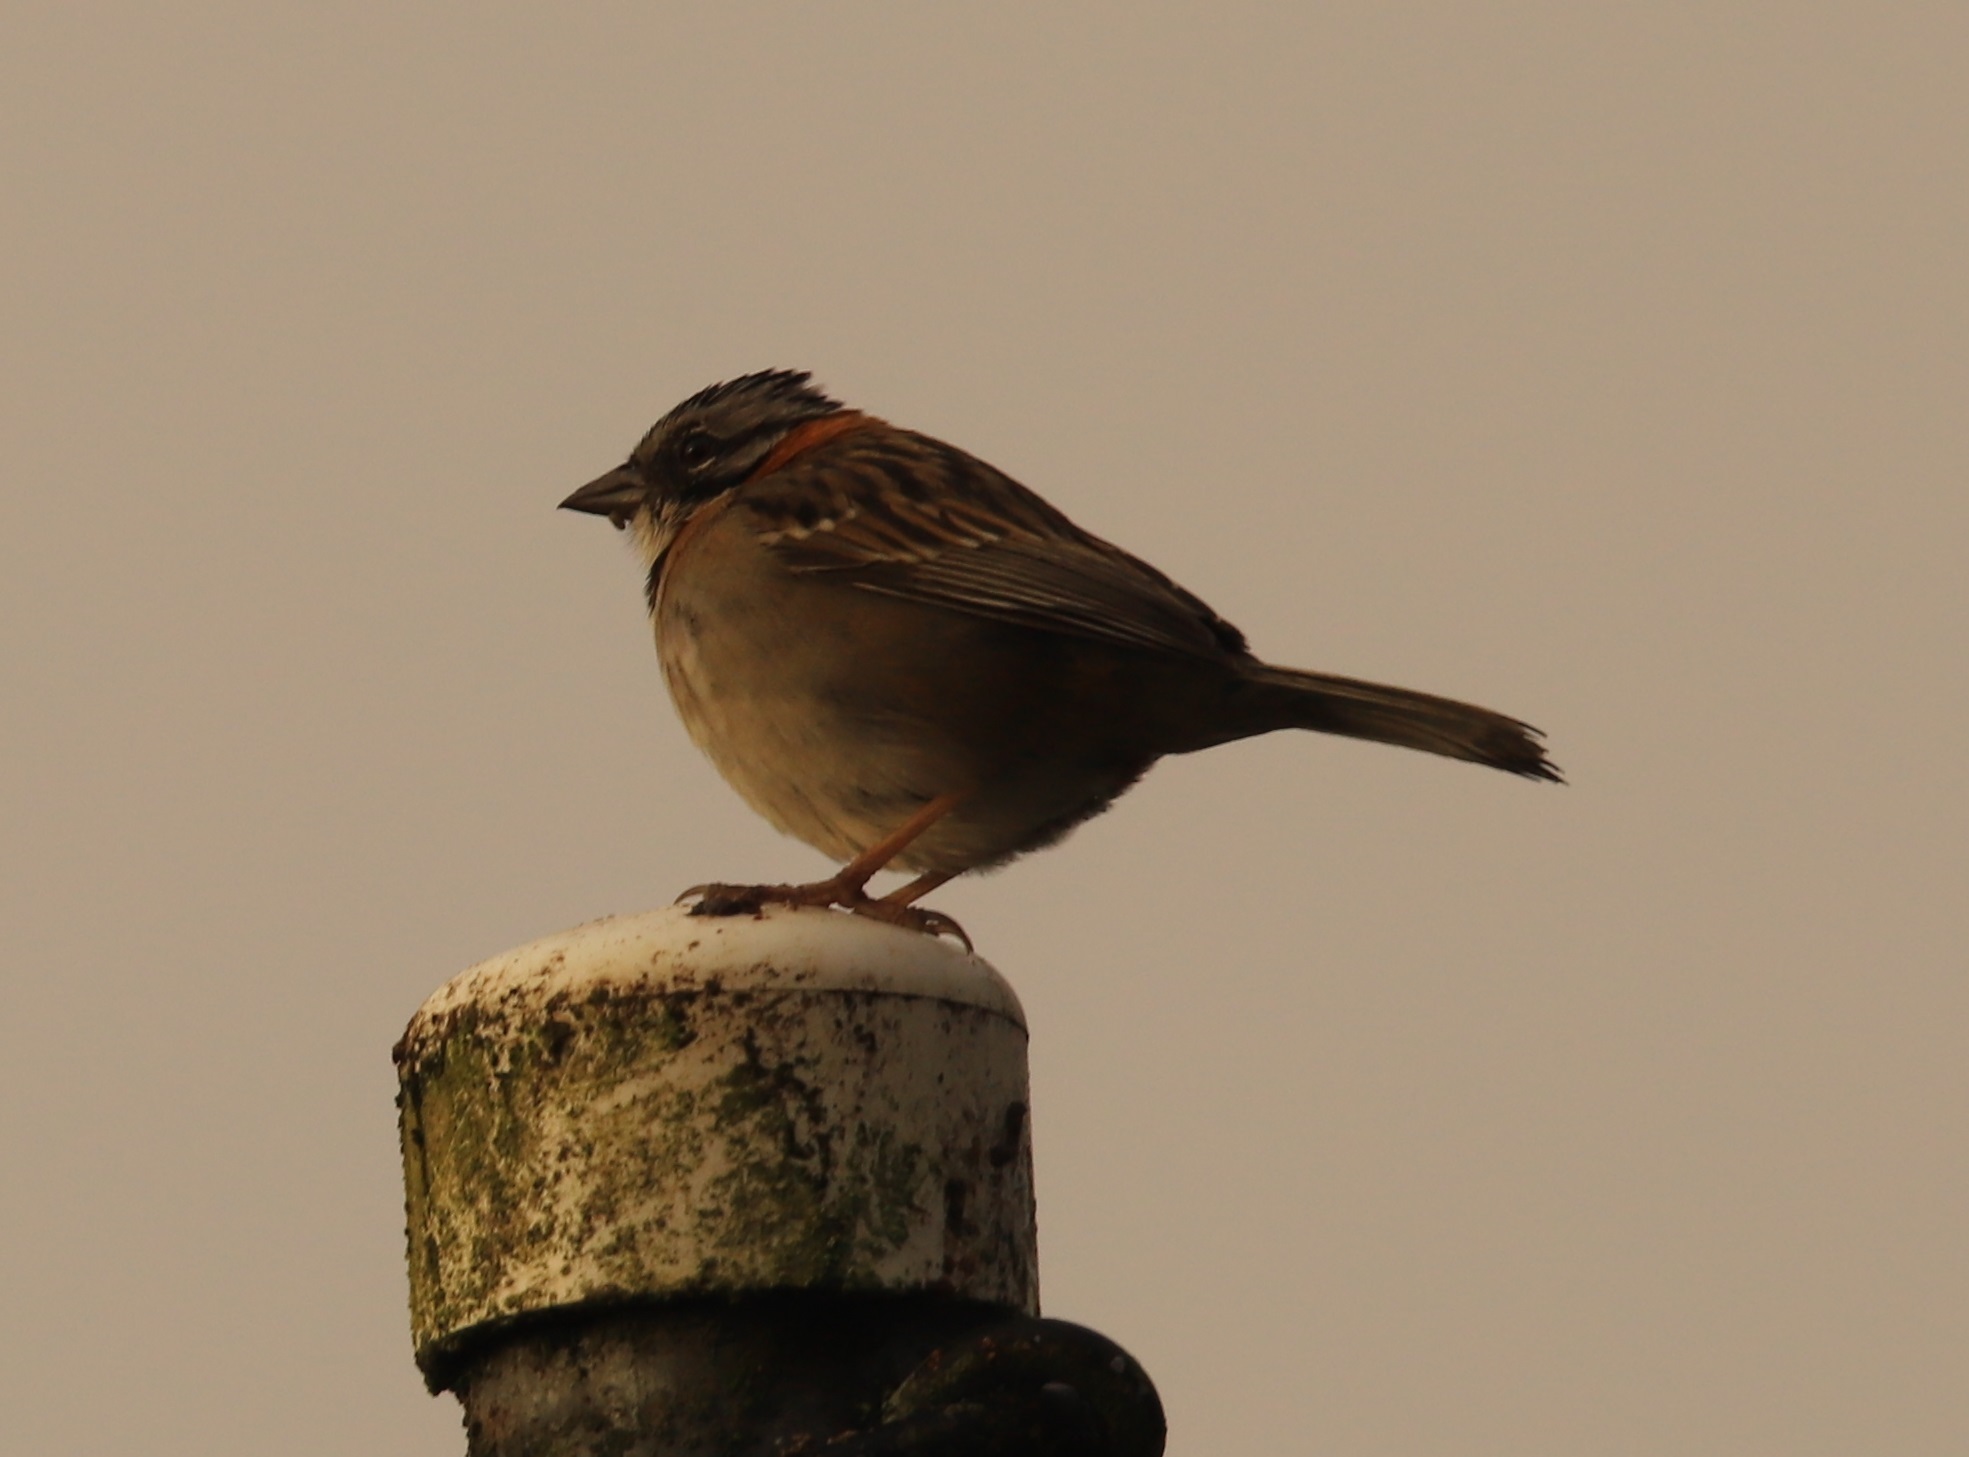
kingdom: Animalia
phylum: Chordata
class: Aves
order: Passeriformes
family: Passerellidae
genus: Zonotrichia
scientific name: Zonotrichia capensis
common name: Rufous-collared sparrow
